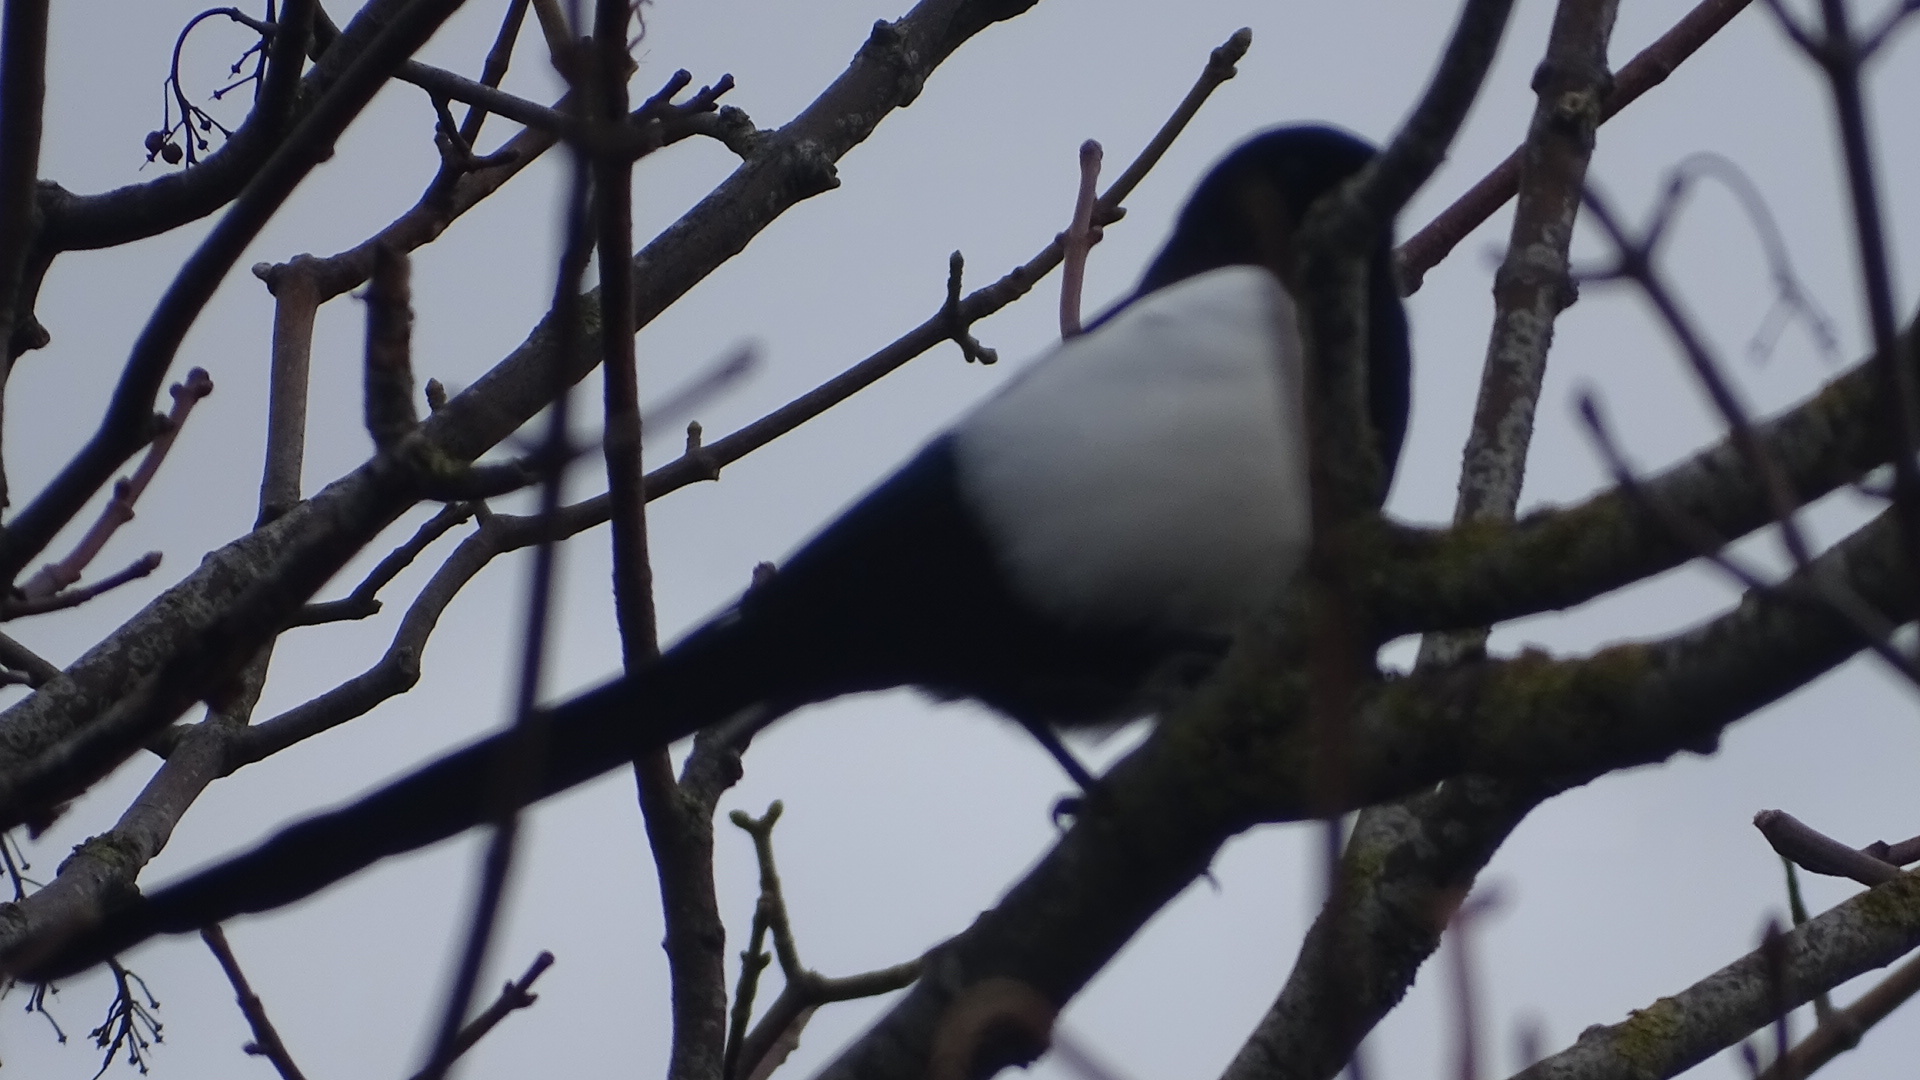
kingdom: Animalia
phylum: Chordata
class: Aves
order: Passeriformes
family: Corvidae
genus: Pica
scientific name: Pica pica
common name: Eurasian magpie
